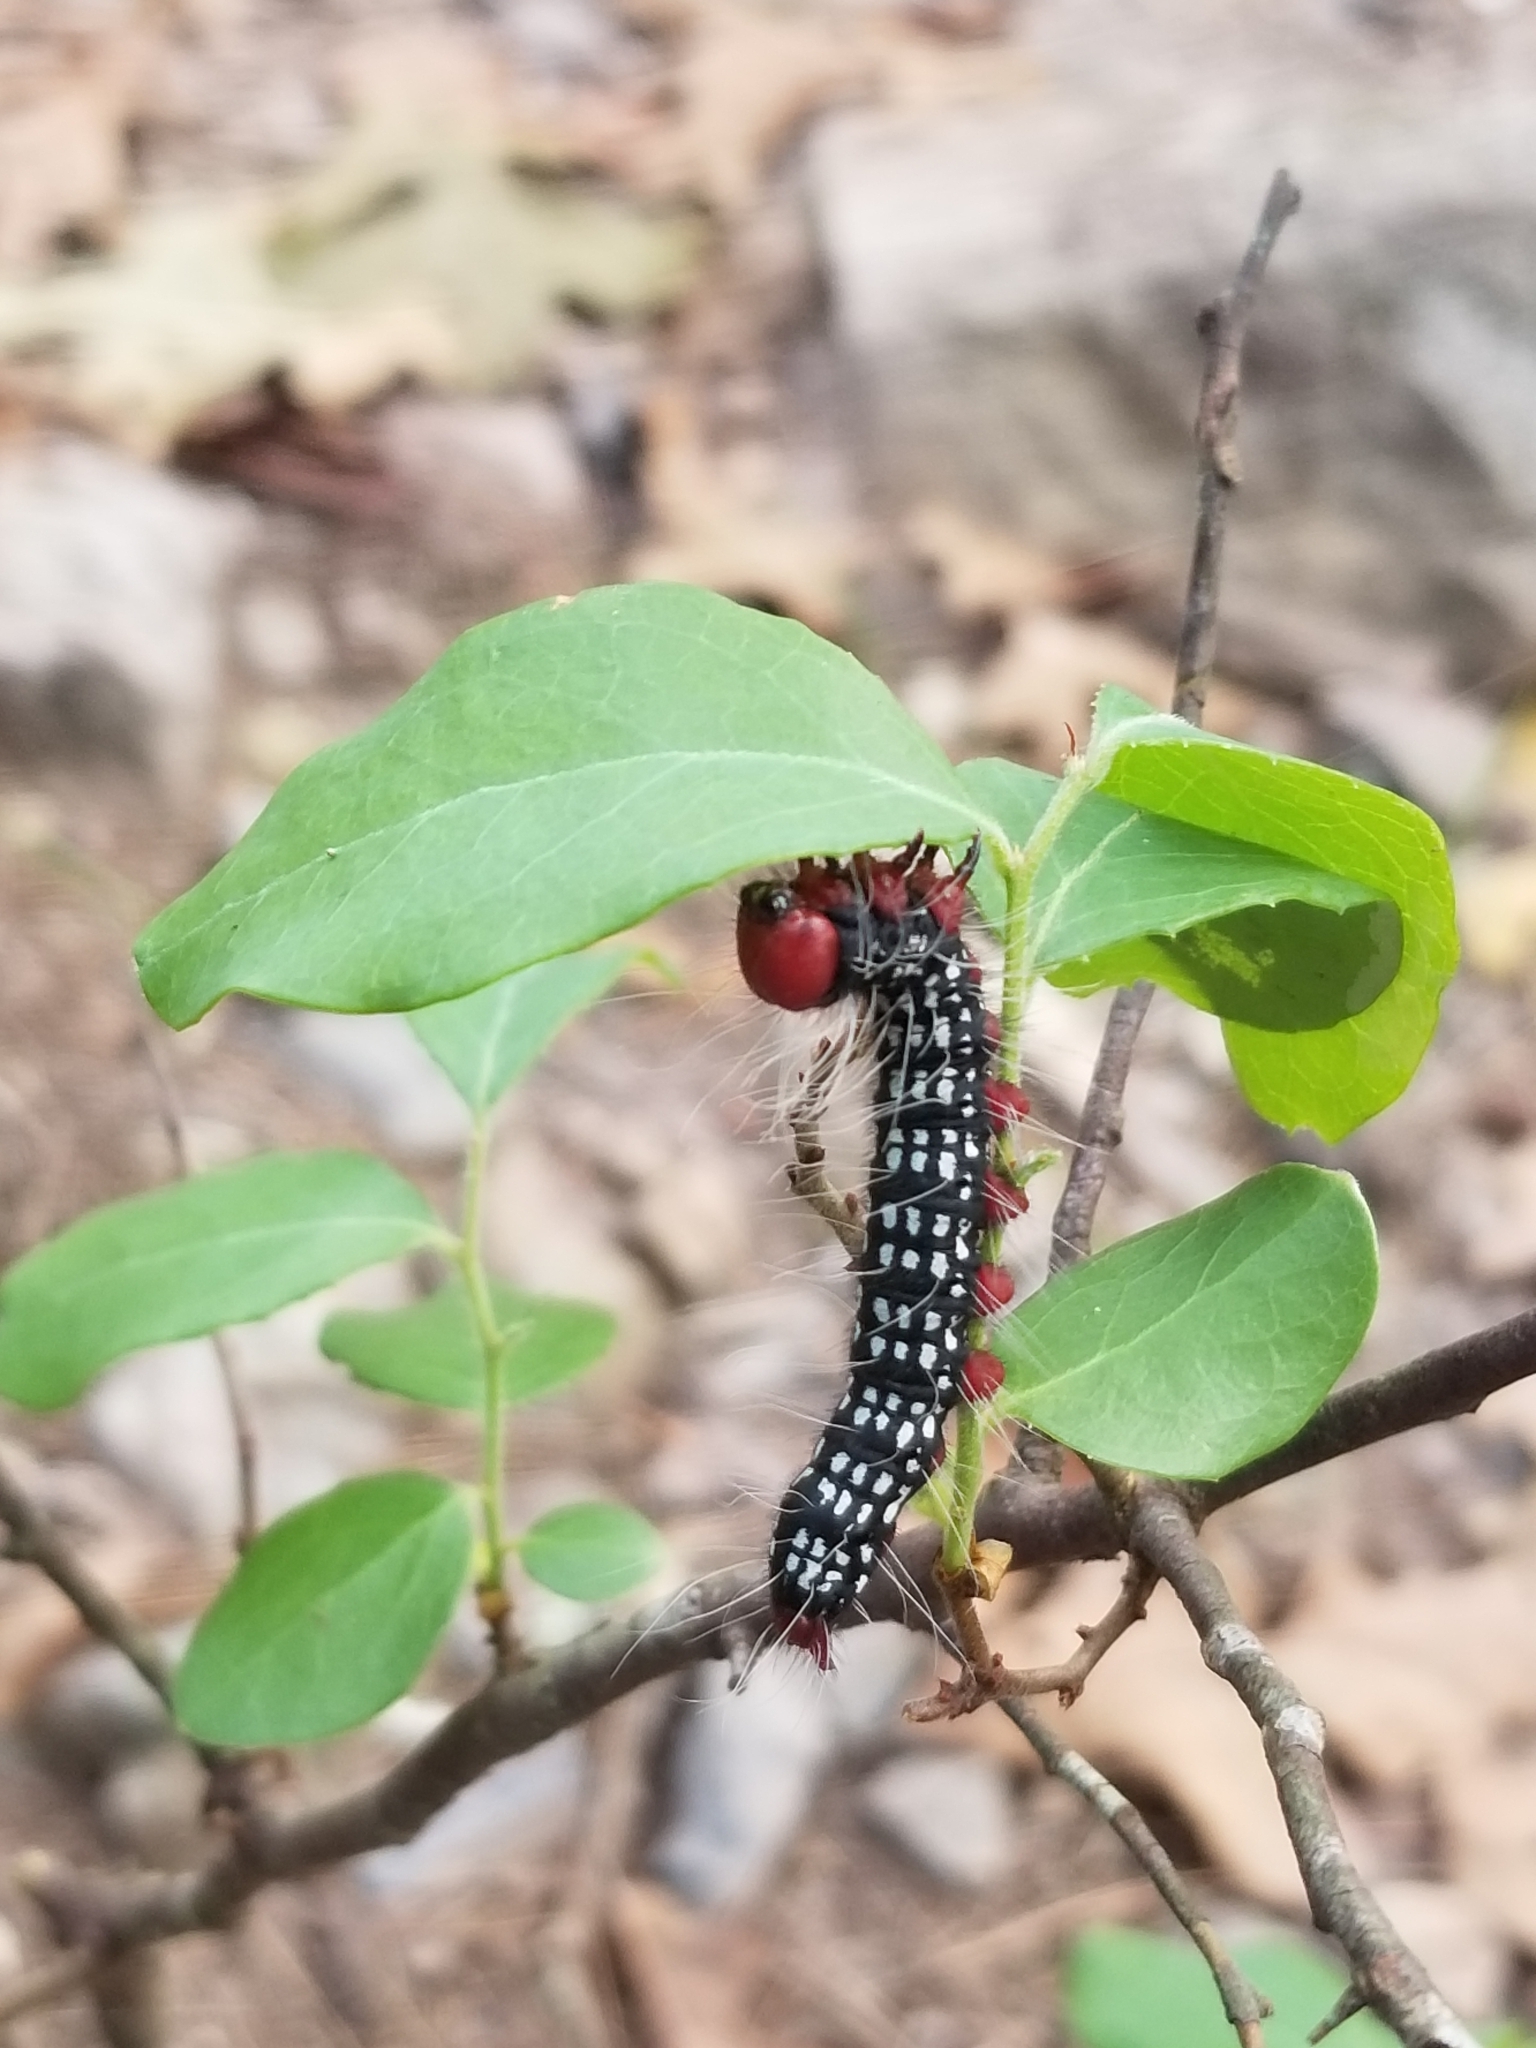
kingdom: Animalia
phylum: Arthropoda
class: Insecta
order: Lepidoptera
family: Notodontidae
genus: Datana
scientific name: Datana major
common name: Azalea caterpillar
